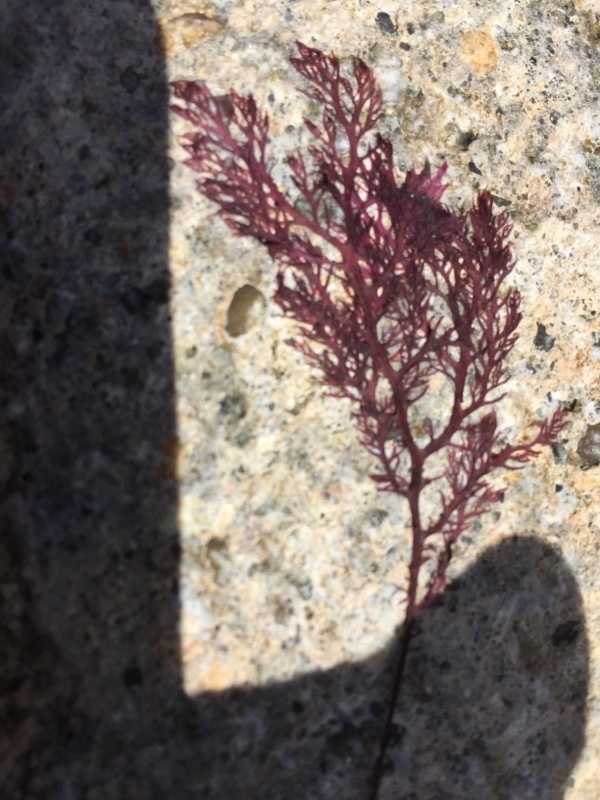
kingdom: Plantae
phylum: Rhodophyta
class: Florideophyceae
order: Gigartinales
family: Sphaerococcaceae
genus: Sphaerococcus
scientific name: Sphaerococcus coronopifolius
